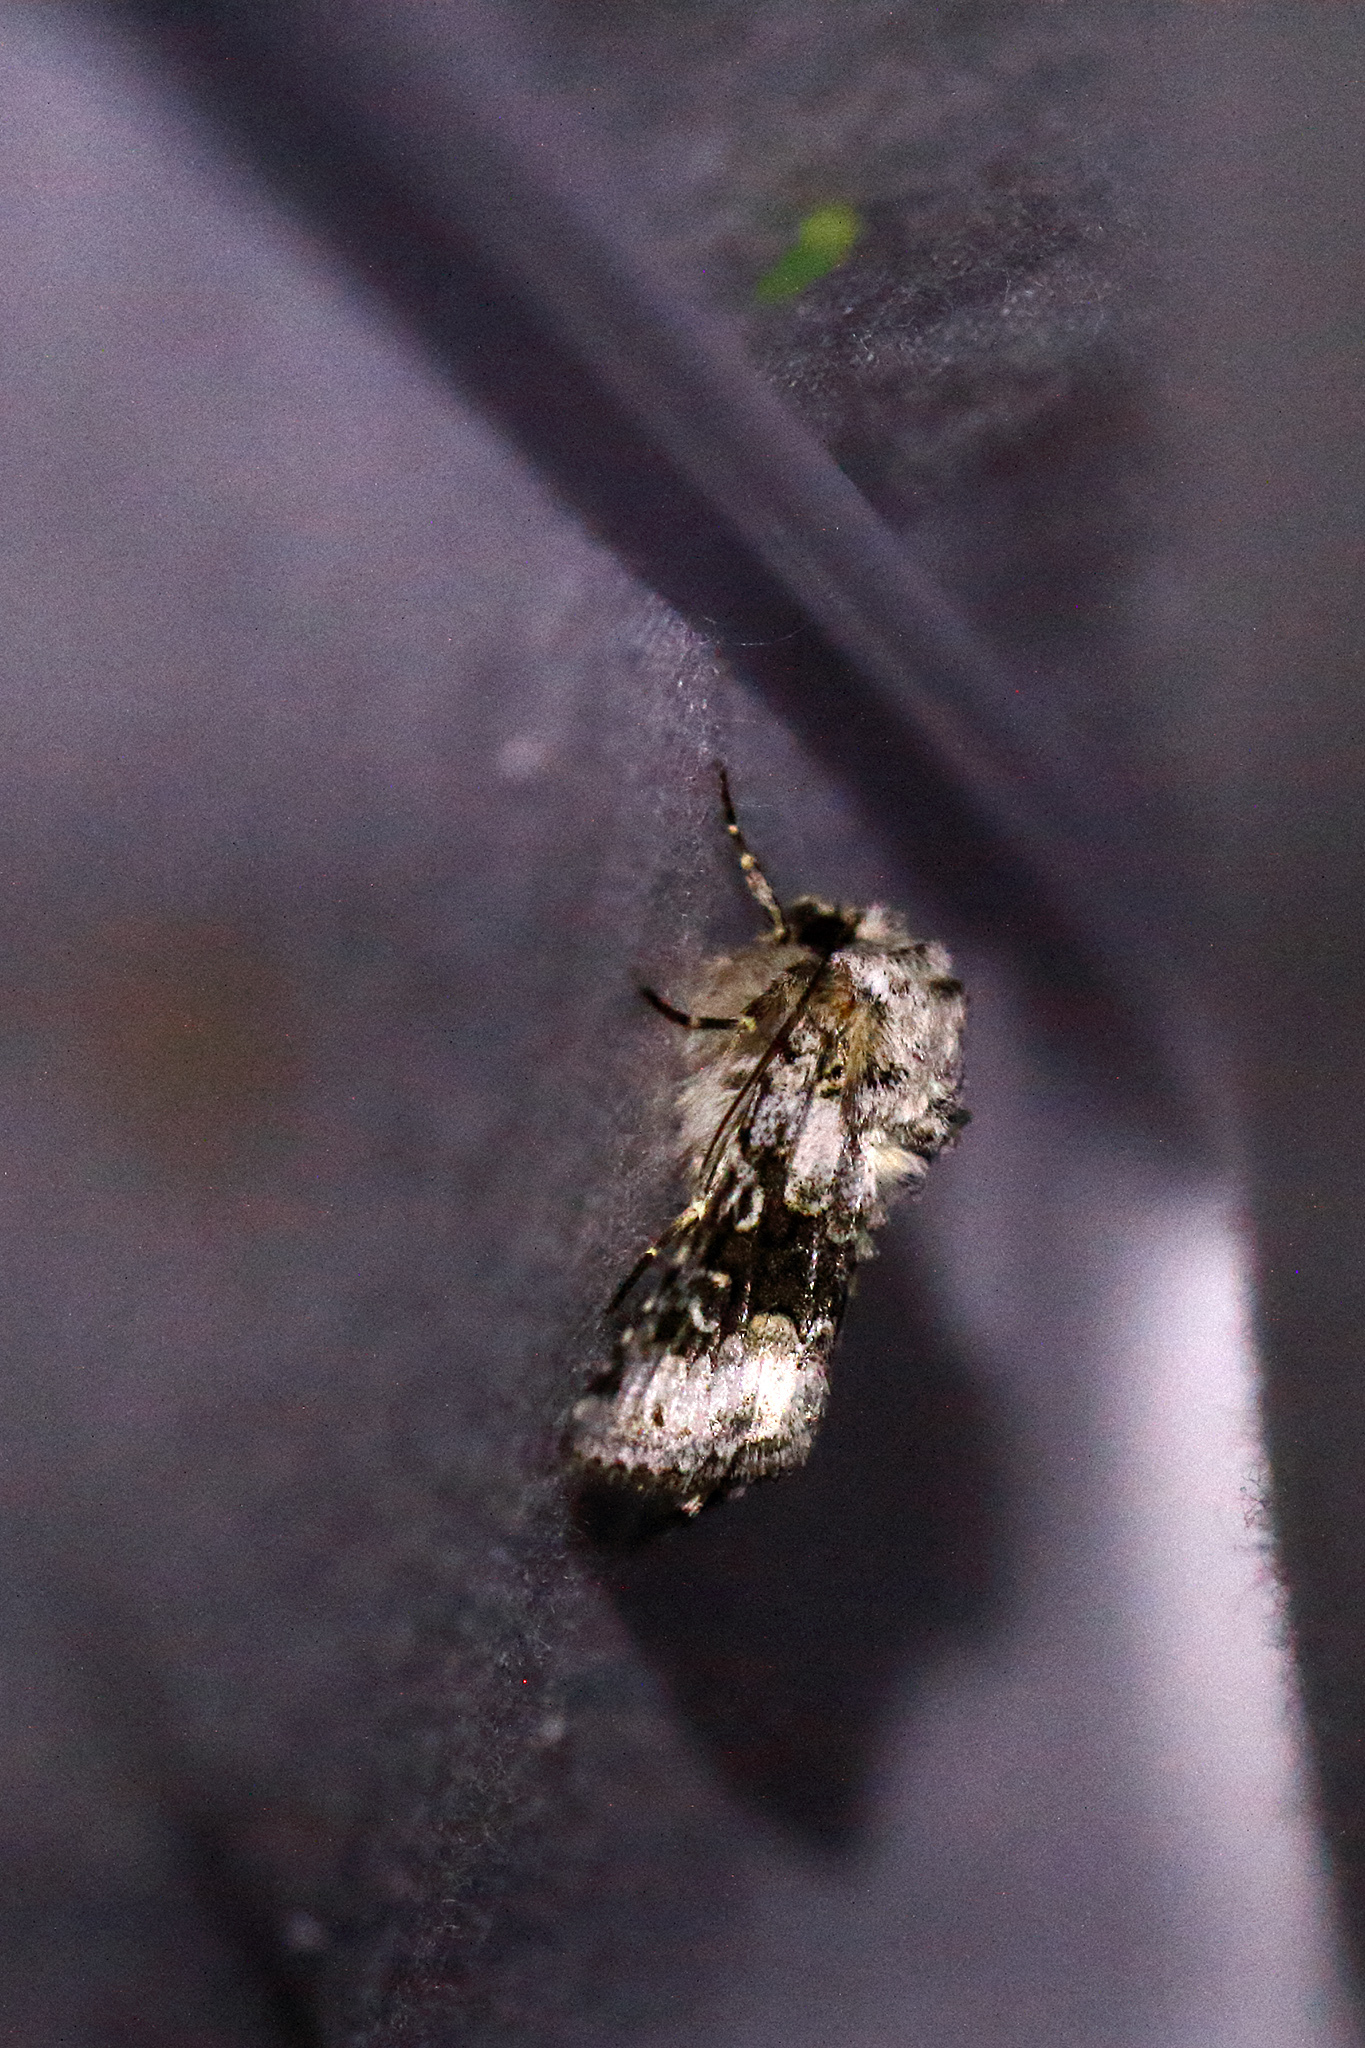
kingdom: Animalia
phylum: Arthropoda
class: Insecta
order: Lepidoptera
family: Noctuidae
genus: Hecatera
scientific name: Hecatera bicolorata
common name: Broad-barred white
